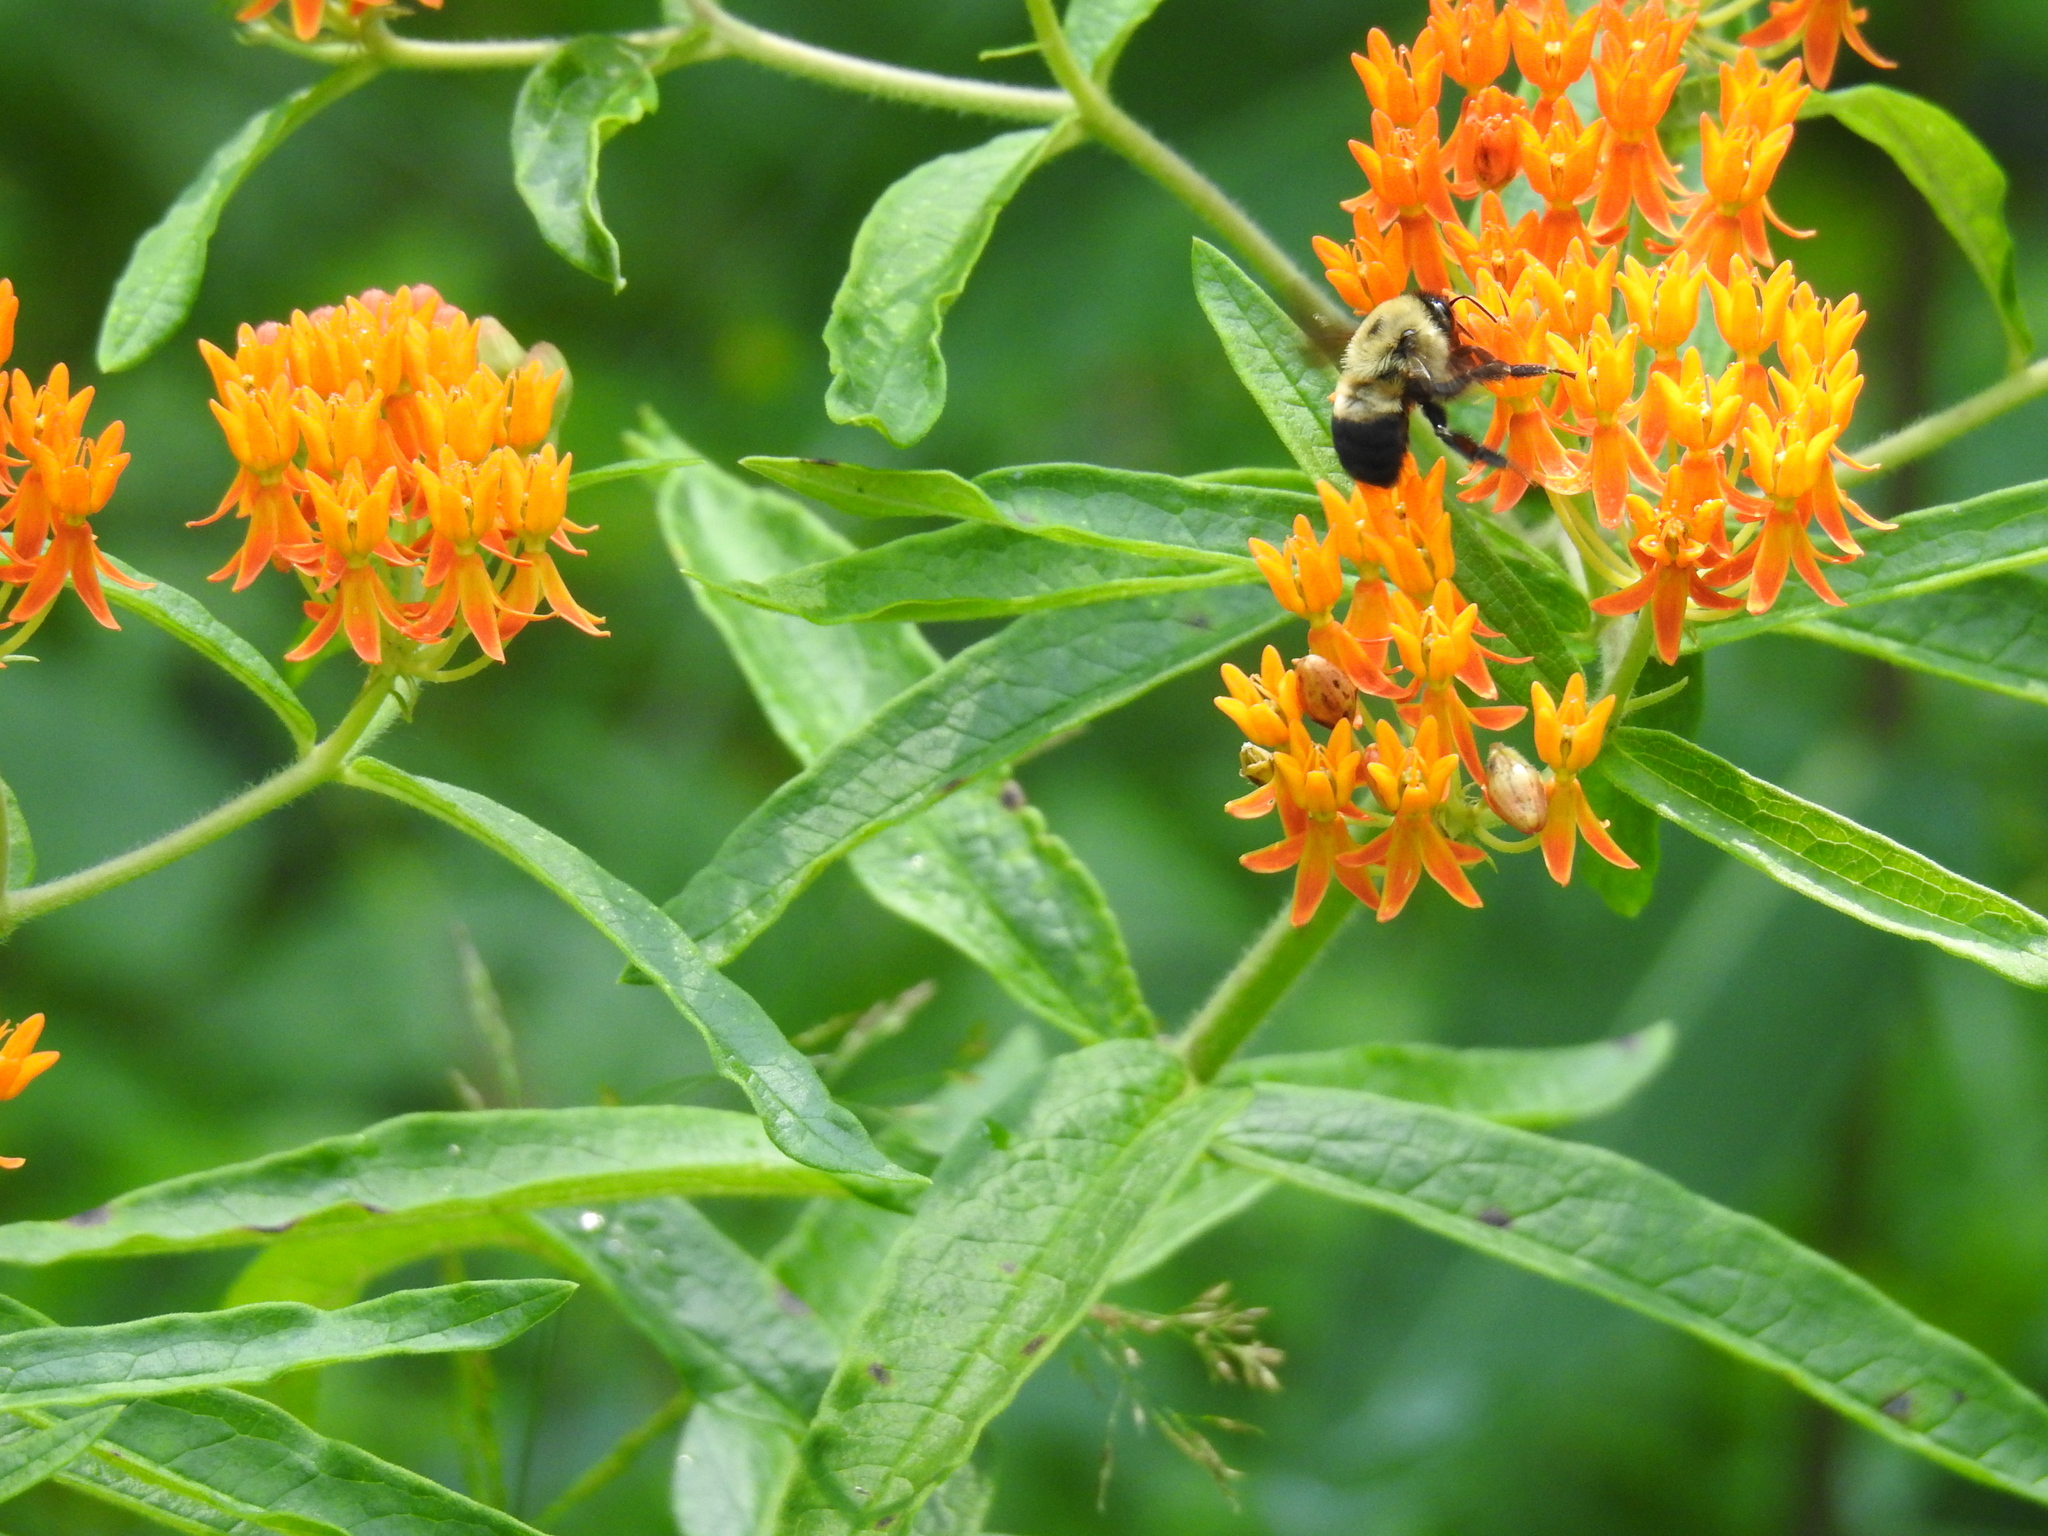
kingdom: Animalia
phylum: Arthropoda
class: Insecta
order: Hymenoptera
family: Apidae
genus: Bombus
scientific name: Bombus griseocollis
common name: Brown-belted bumble bee
